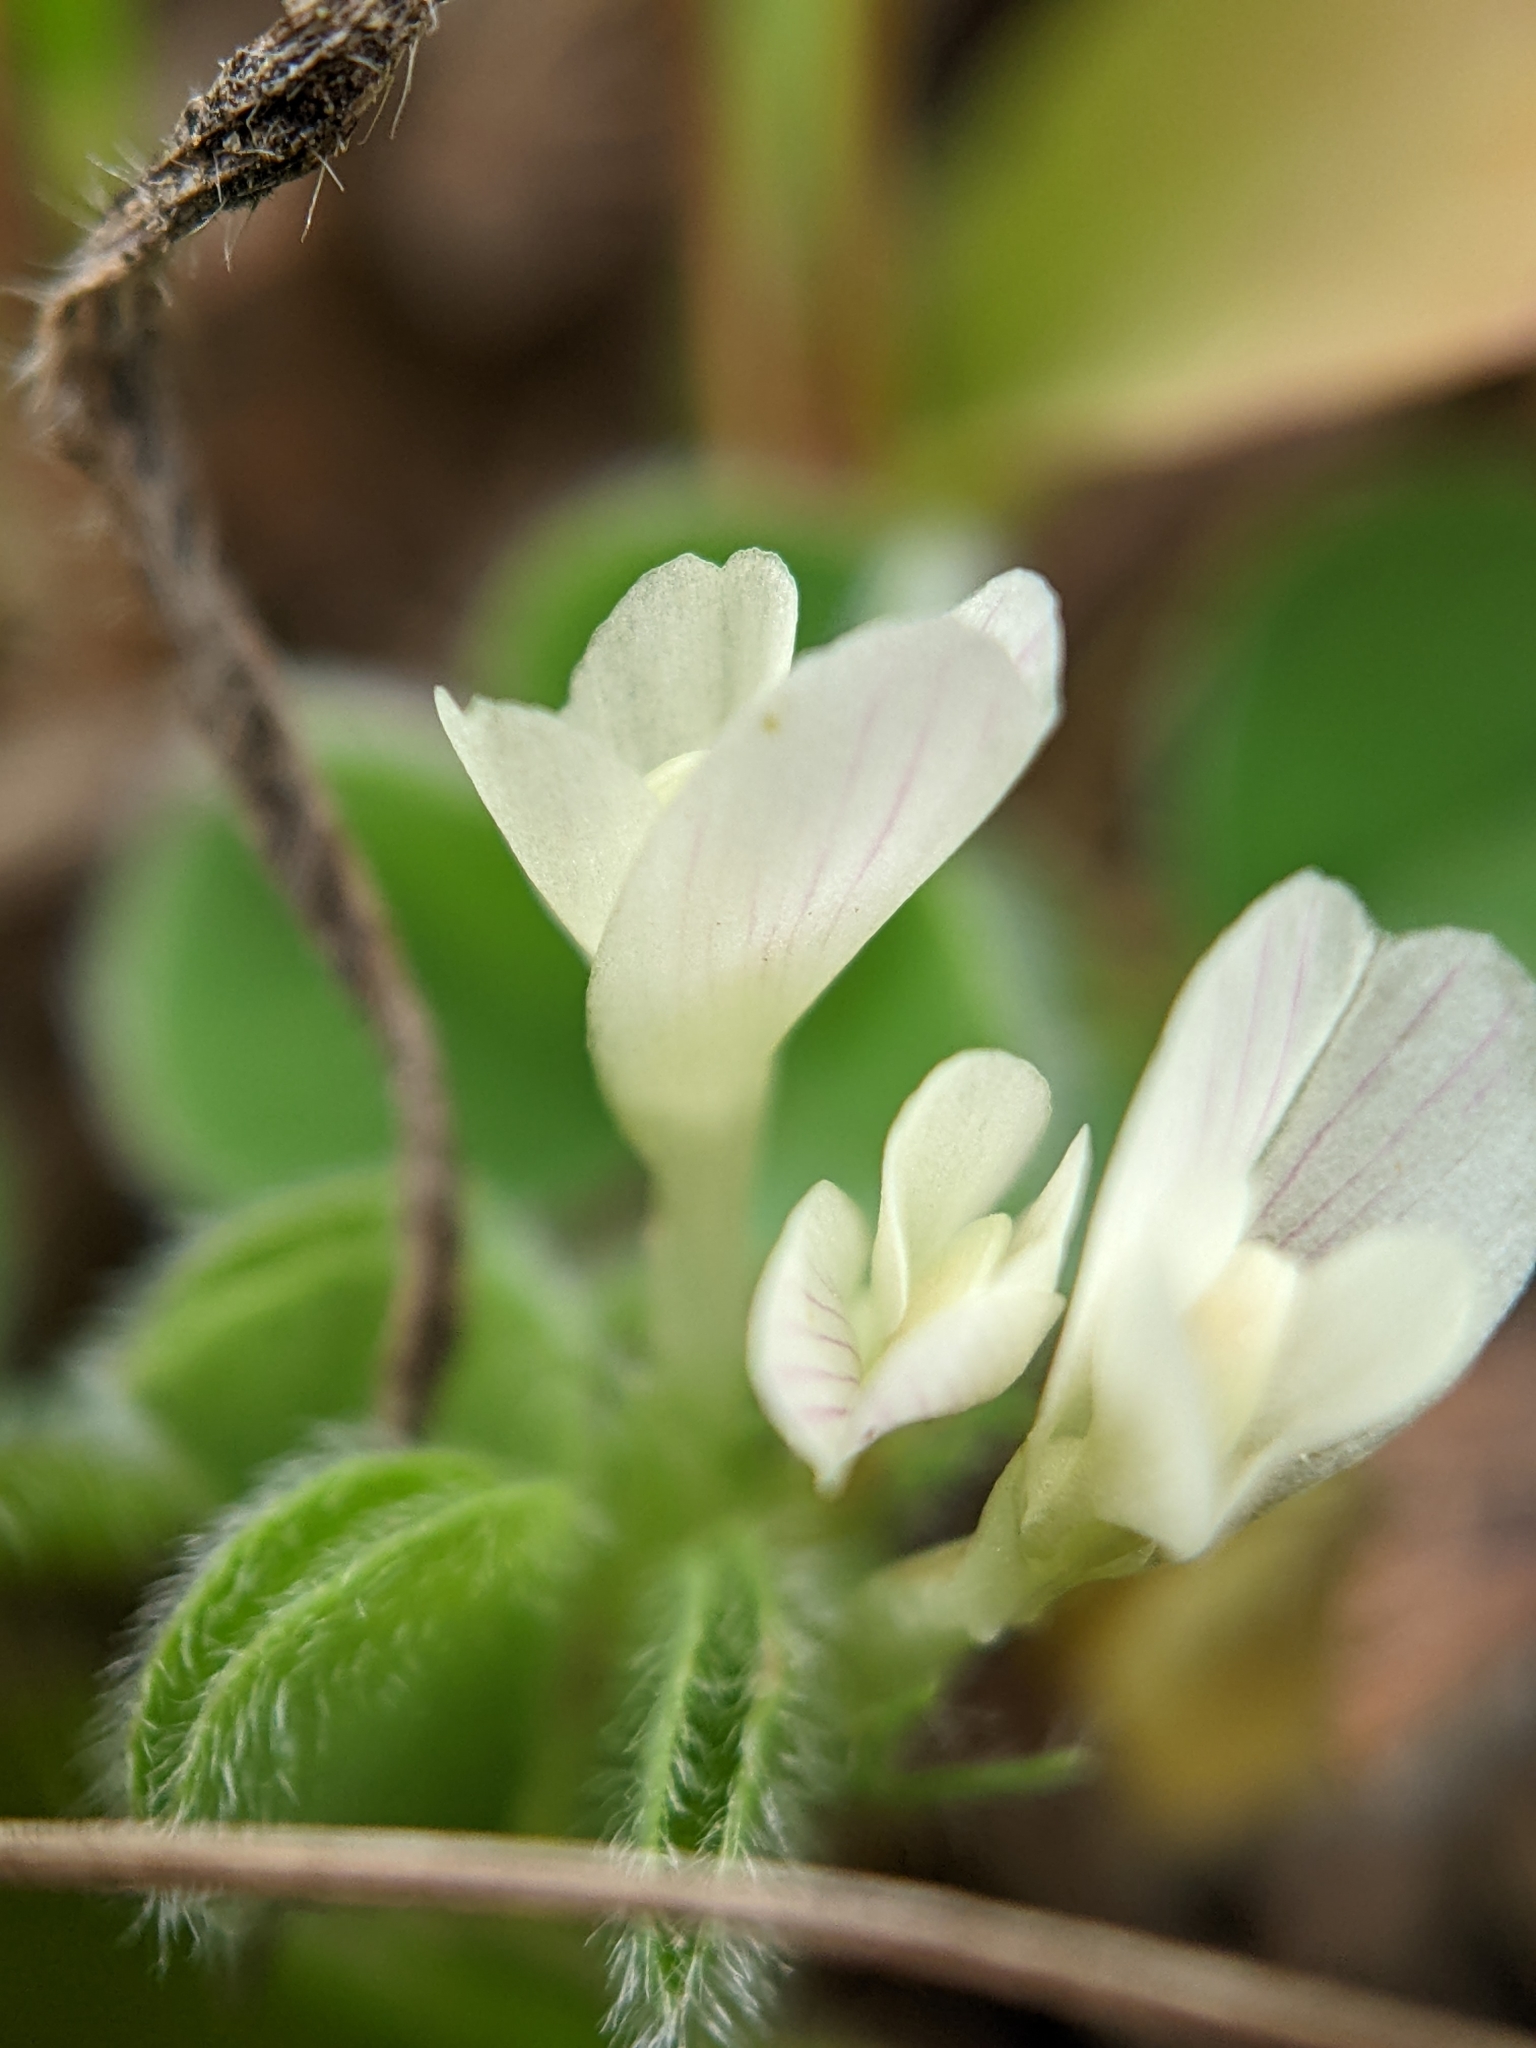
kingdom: Plantae
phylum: Tracheophyta
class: Magnoliopsida
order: Fabales
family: Fabaceae
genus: Trifolium
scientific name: Trifolium subterraneum
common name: Subterranean clover
